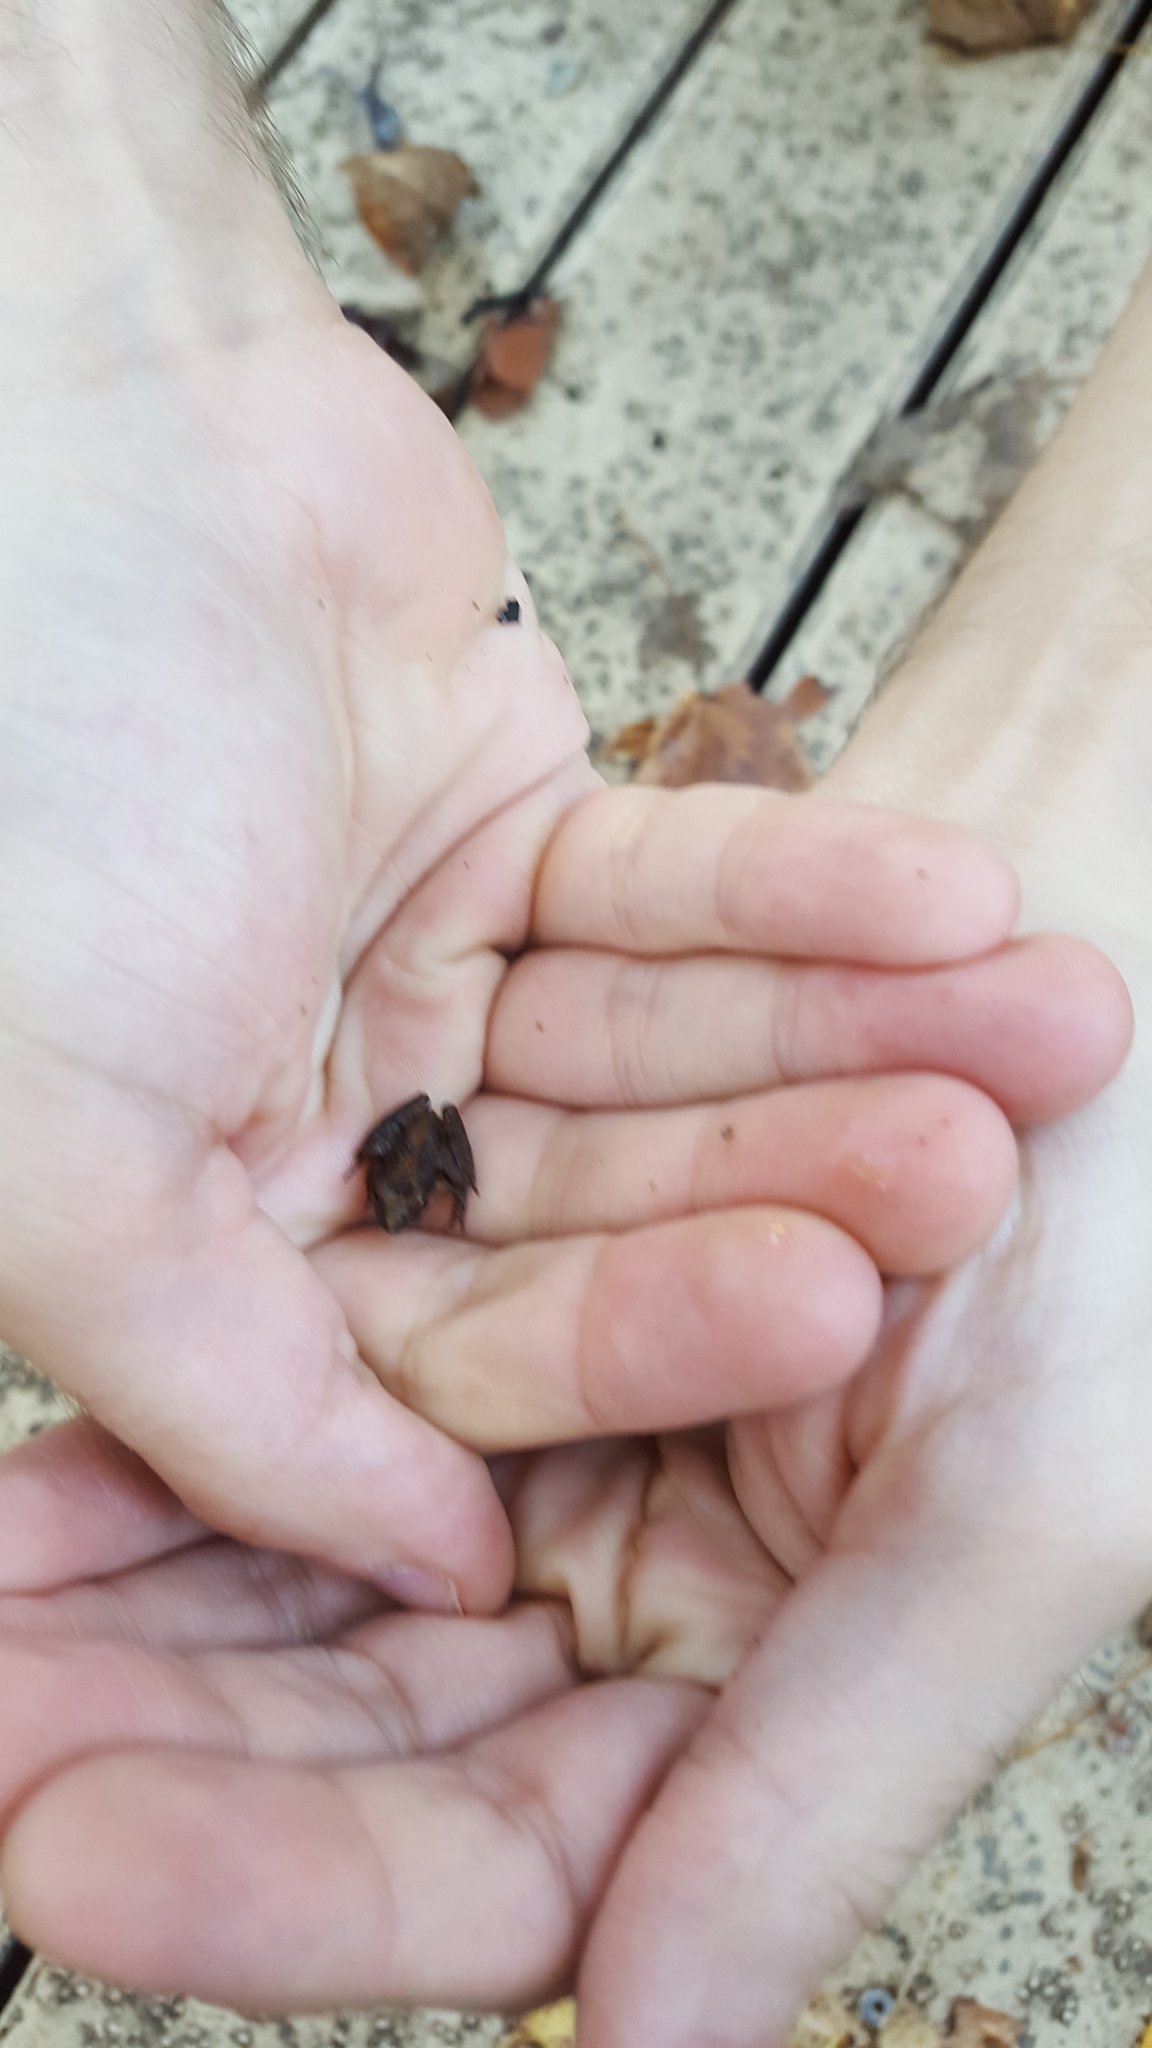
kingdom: Animalia
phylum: Chordata
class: Amphibia
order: Anura
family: Hylidae
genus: Acris
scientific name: Acris crepitans
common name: Northern cricket frog
